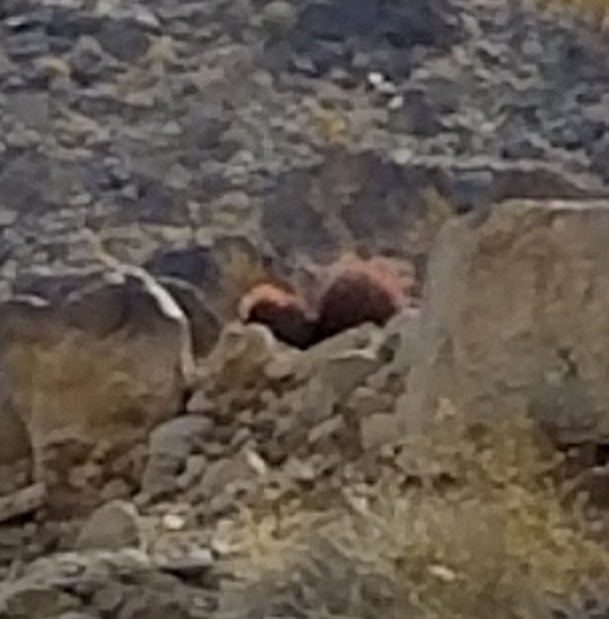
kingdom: Plantae
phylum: Tracheophyta
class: Magnoliopsida
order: Caryophyllales
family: Cactaceae
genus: Ferocactus
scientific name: Ferocactus cylindraceus
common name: California barrel cactus
